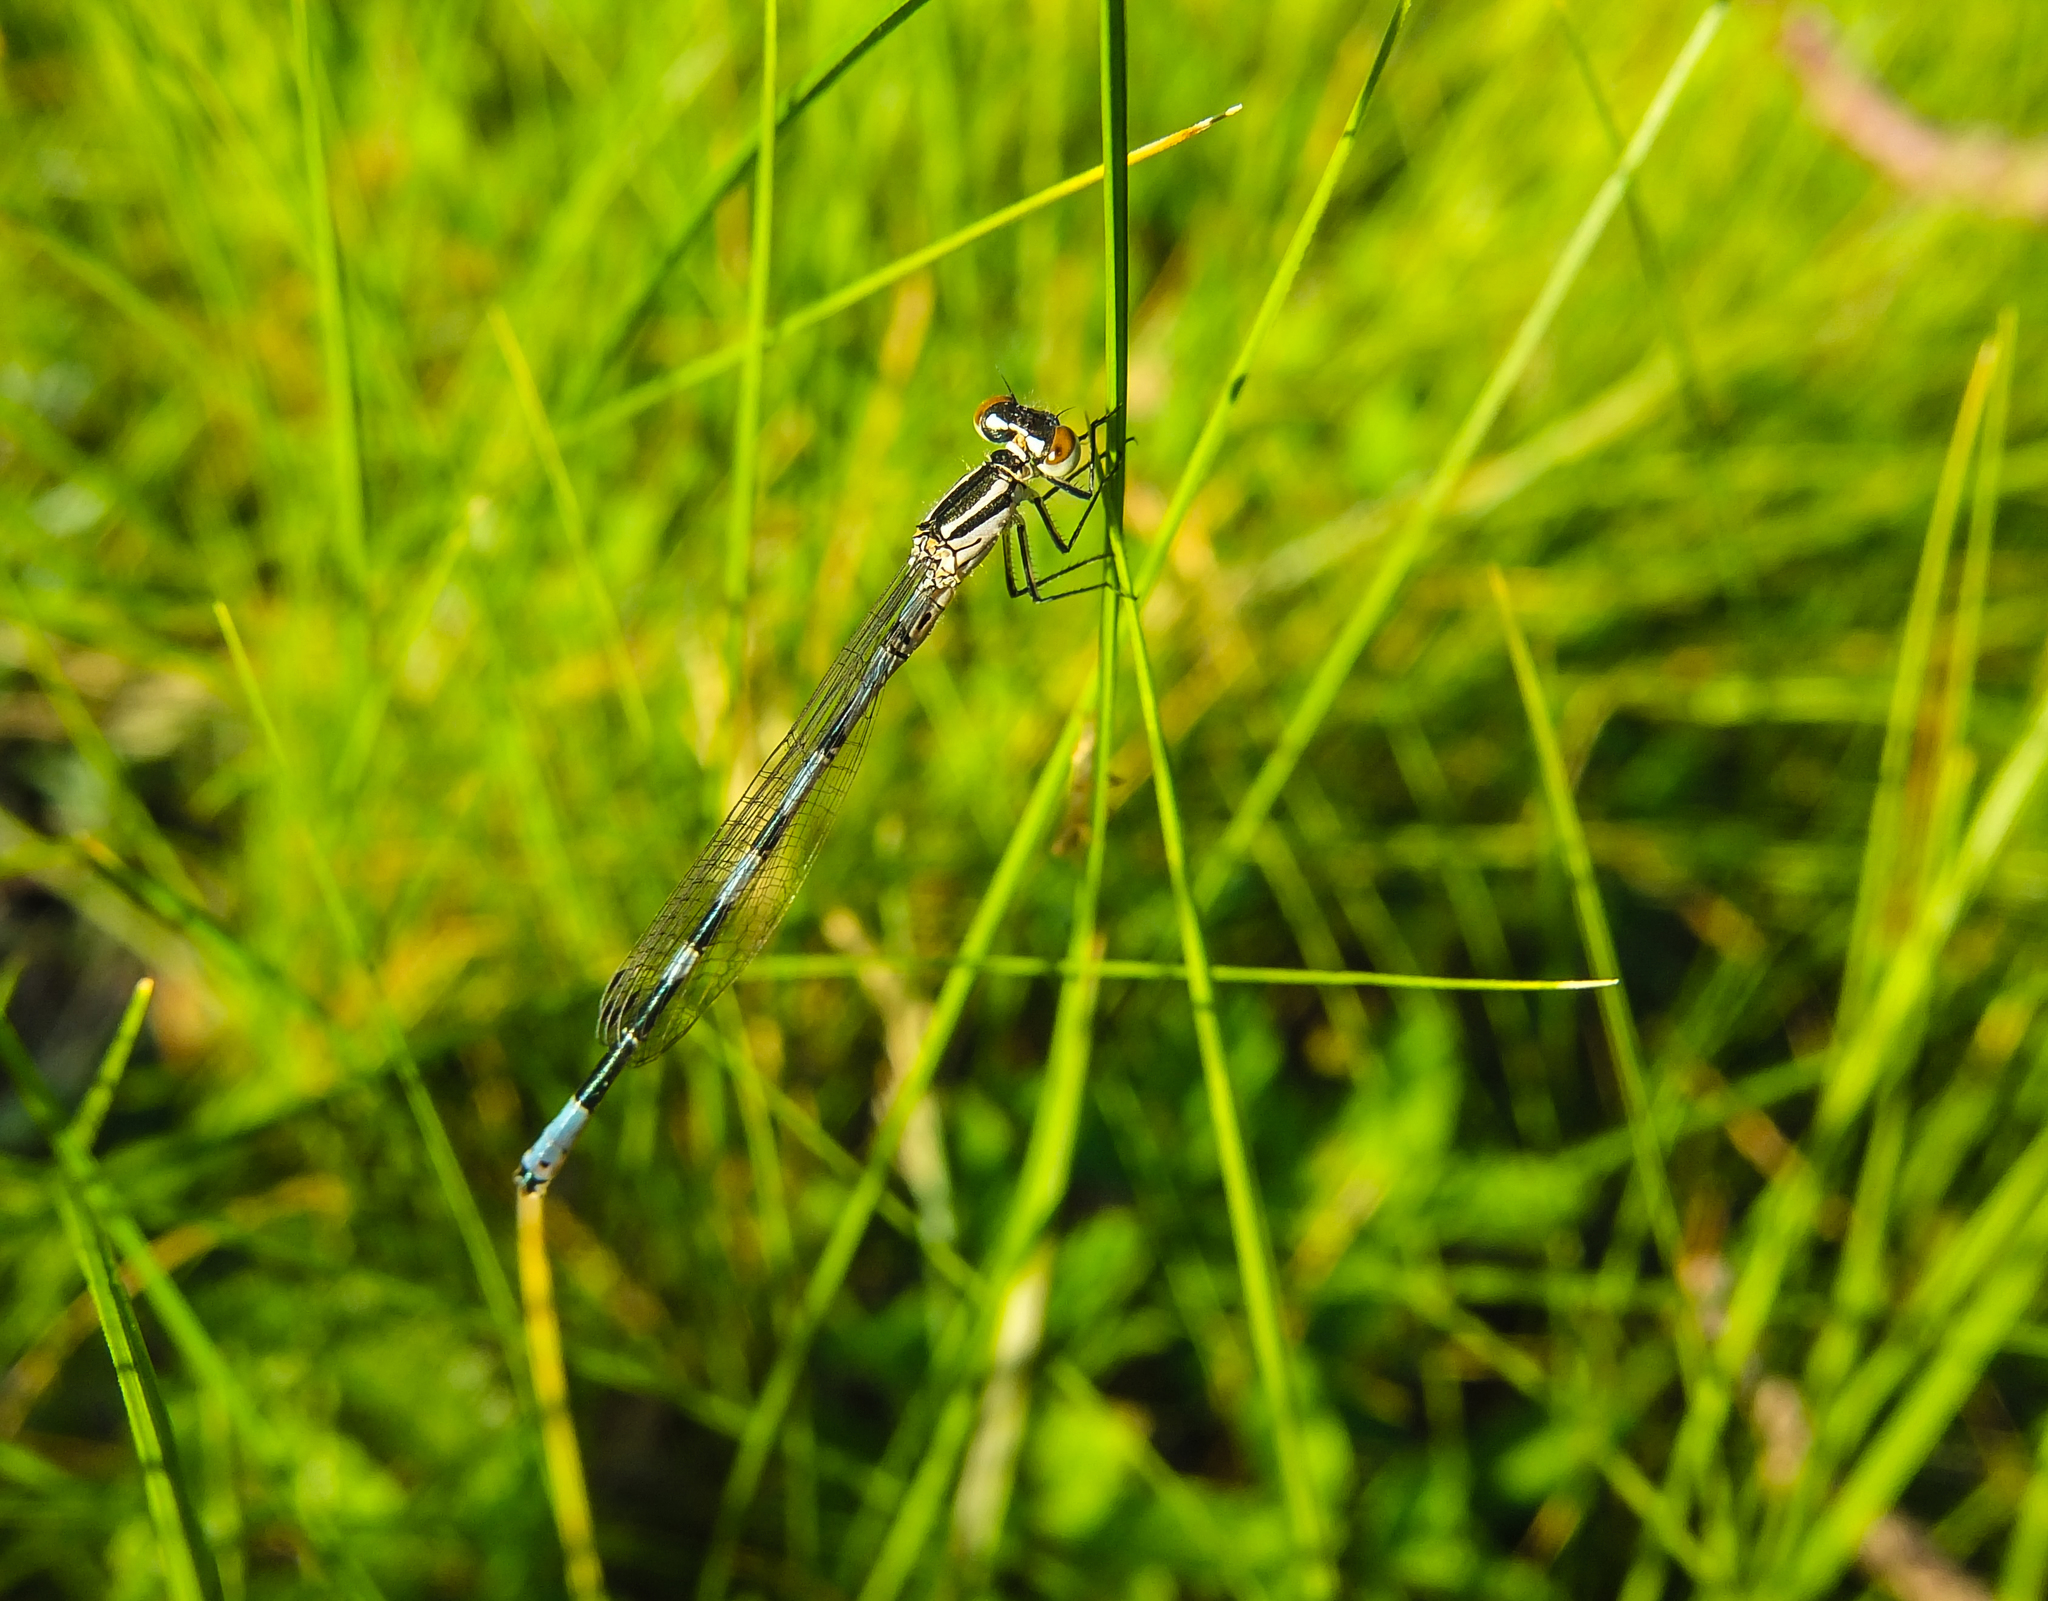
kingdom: Animalia
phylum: Arthropoda
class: Insecta
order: Odonata
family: Coenagrionidae
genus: Coenagrion
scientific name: Coenagrion hastulatum
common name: Spearhead bluet
